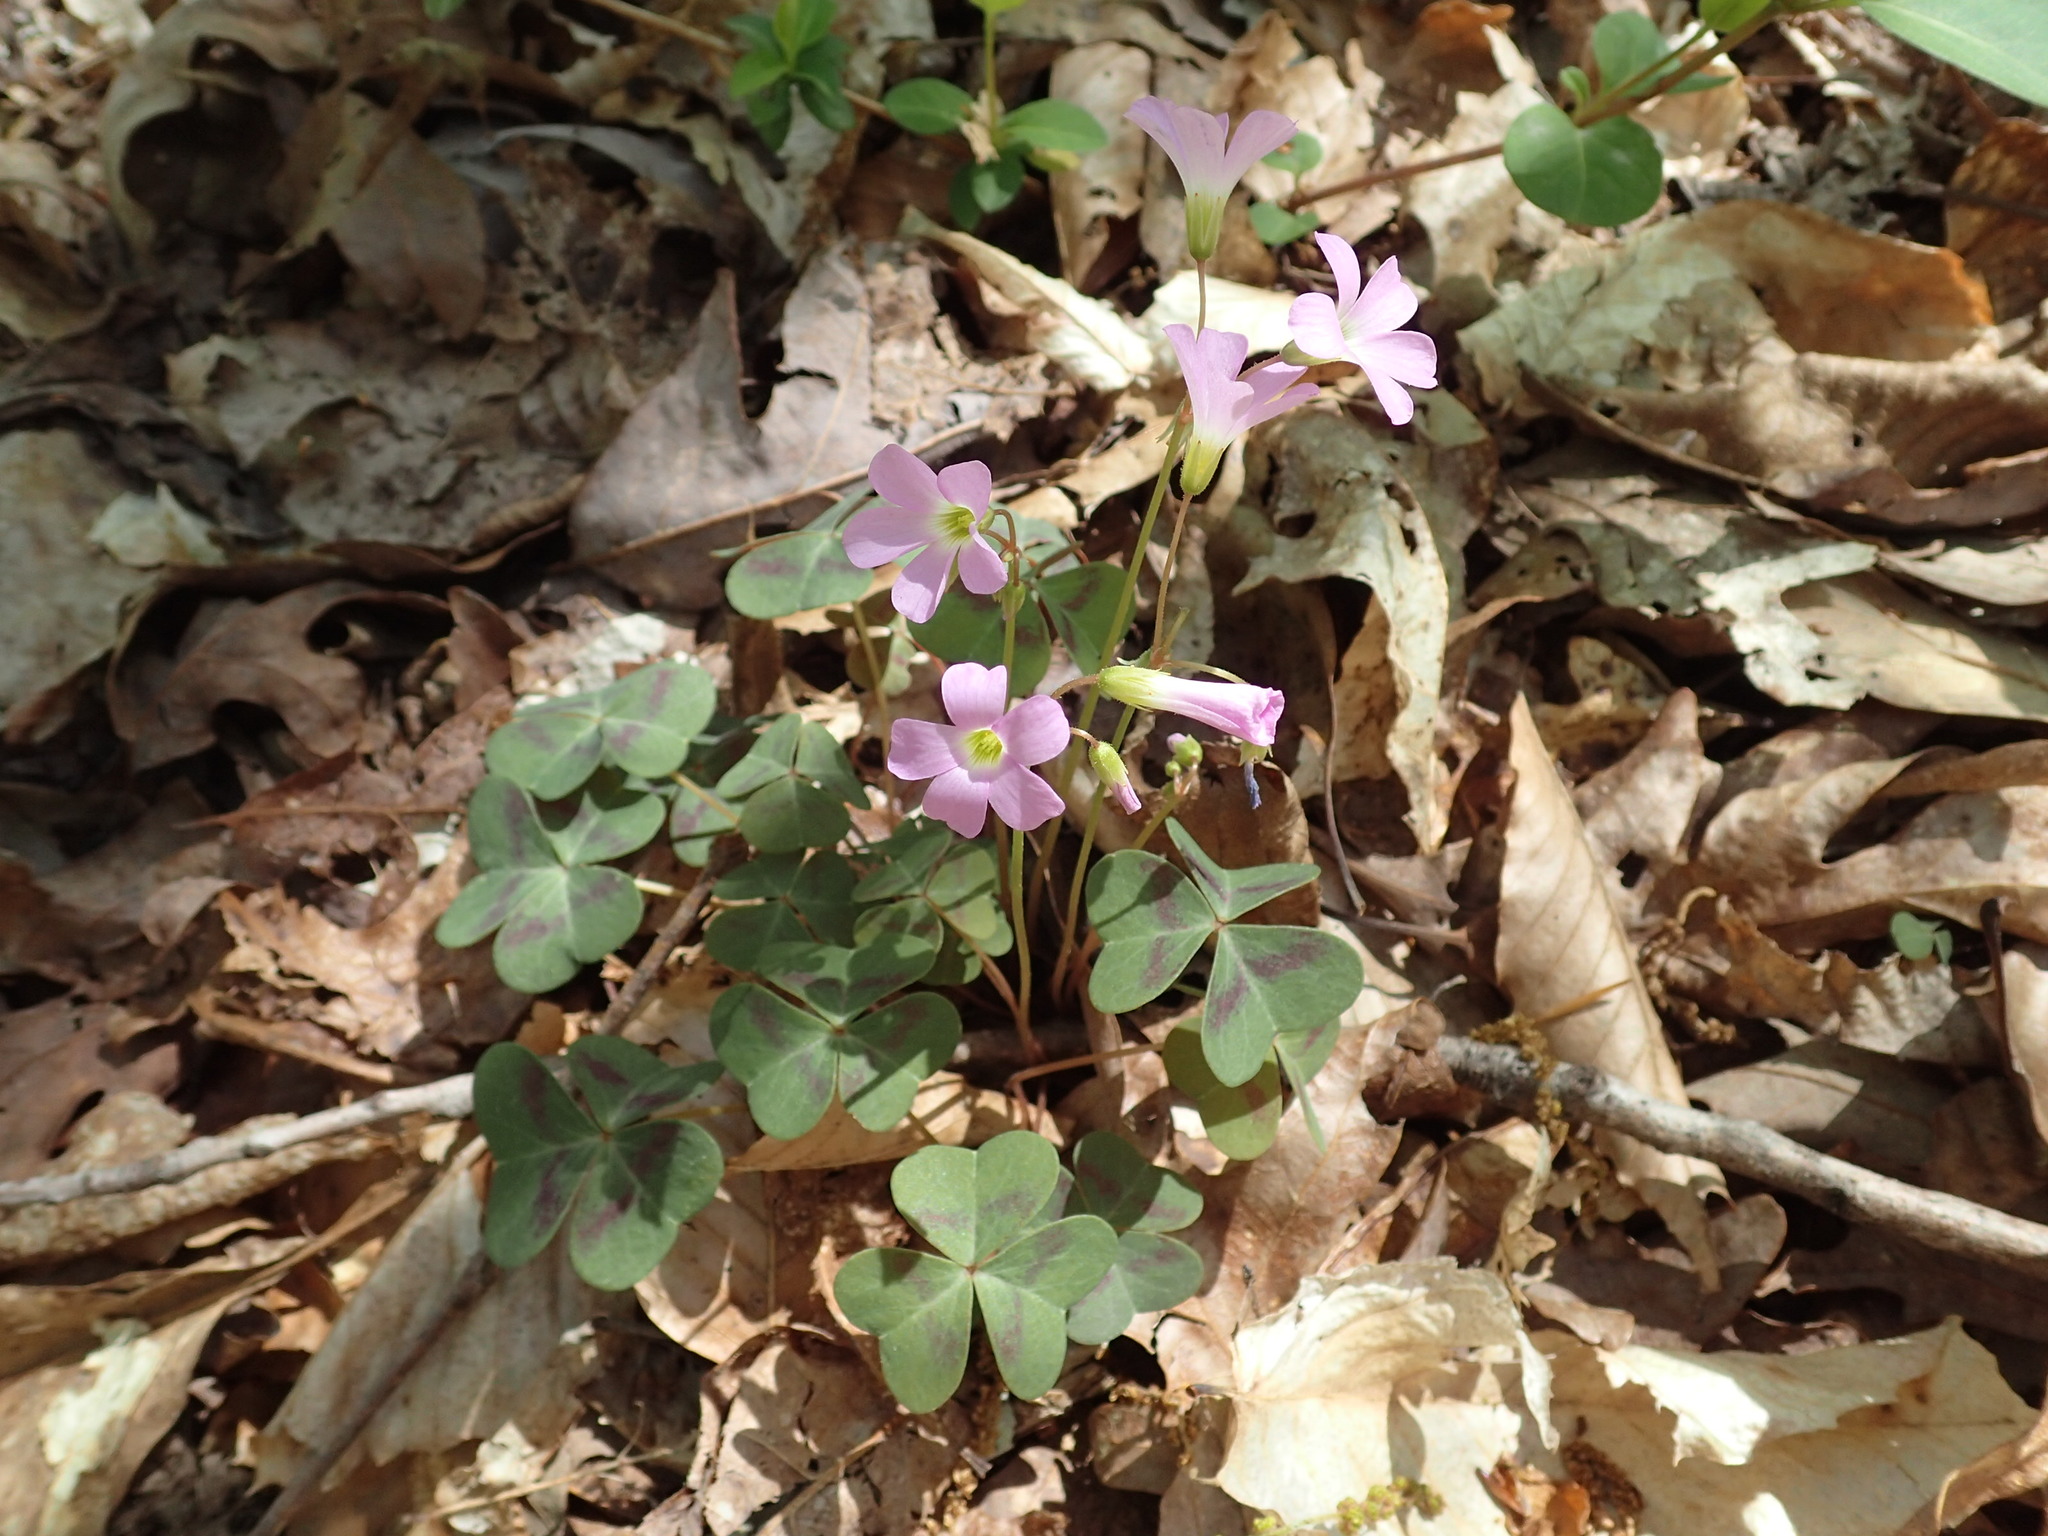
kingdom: Plantae
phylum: Tracheophyta
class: Magnoliopsida
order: Oxalidales
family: Oxalidaceae
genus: Oxalis
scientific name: Oxalis violacea
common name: Violet wood-sorrel
